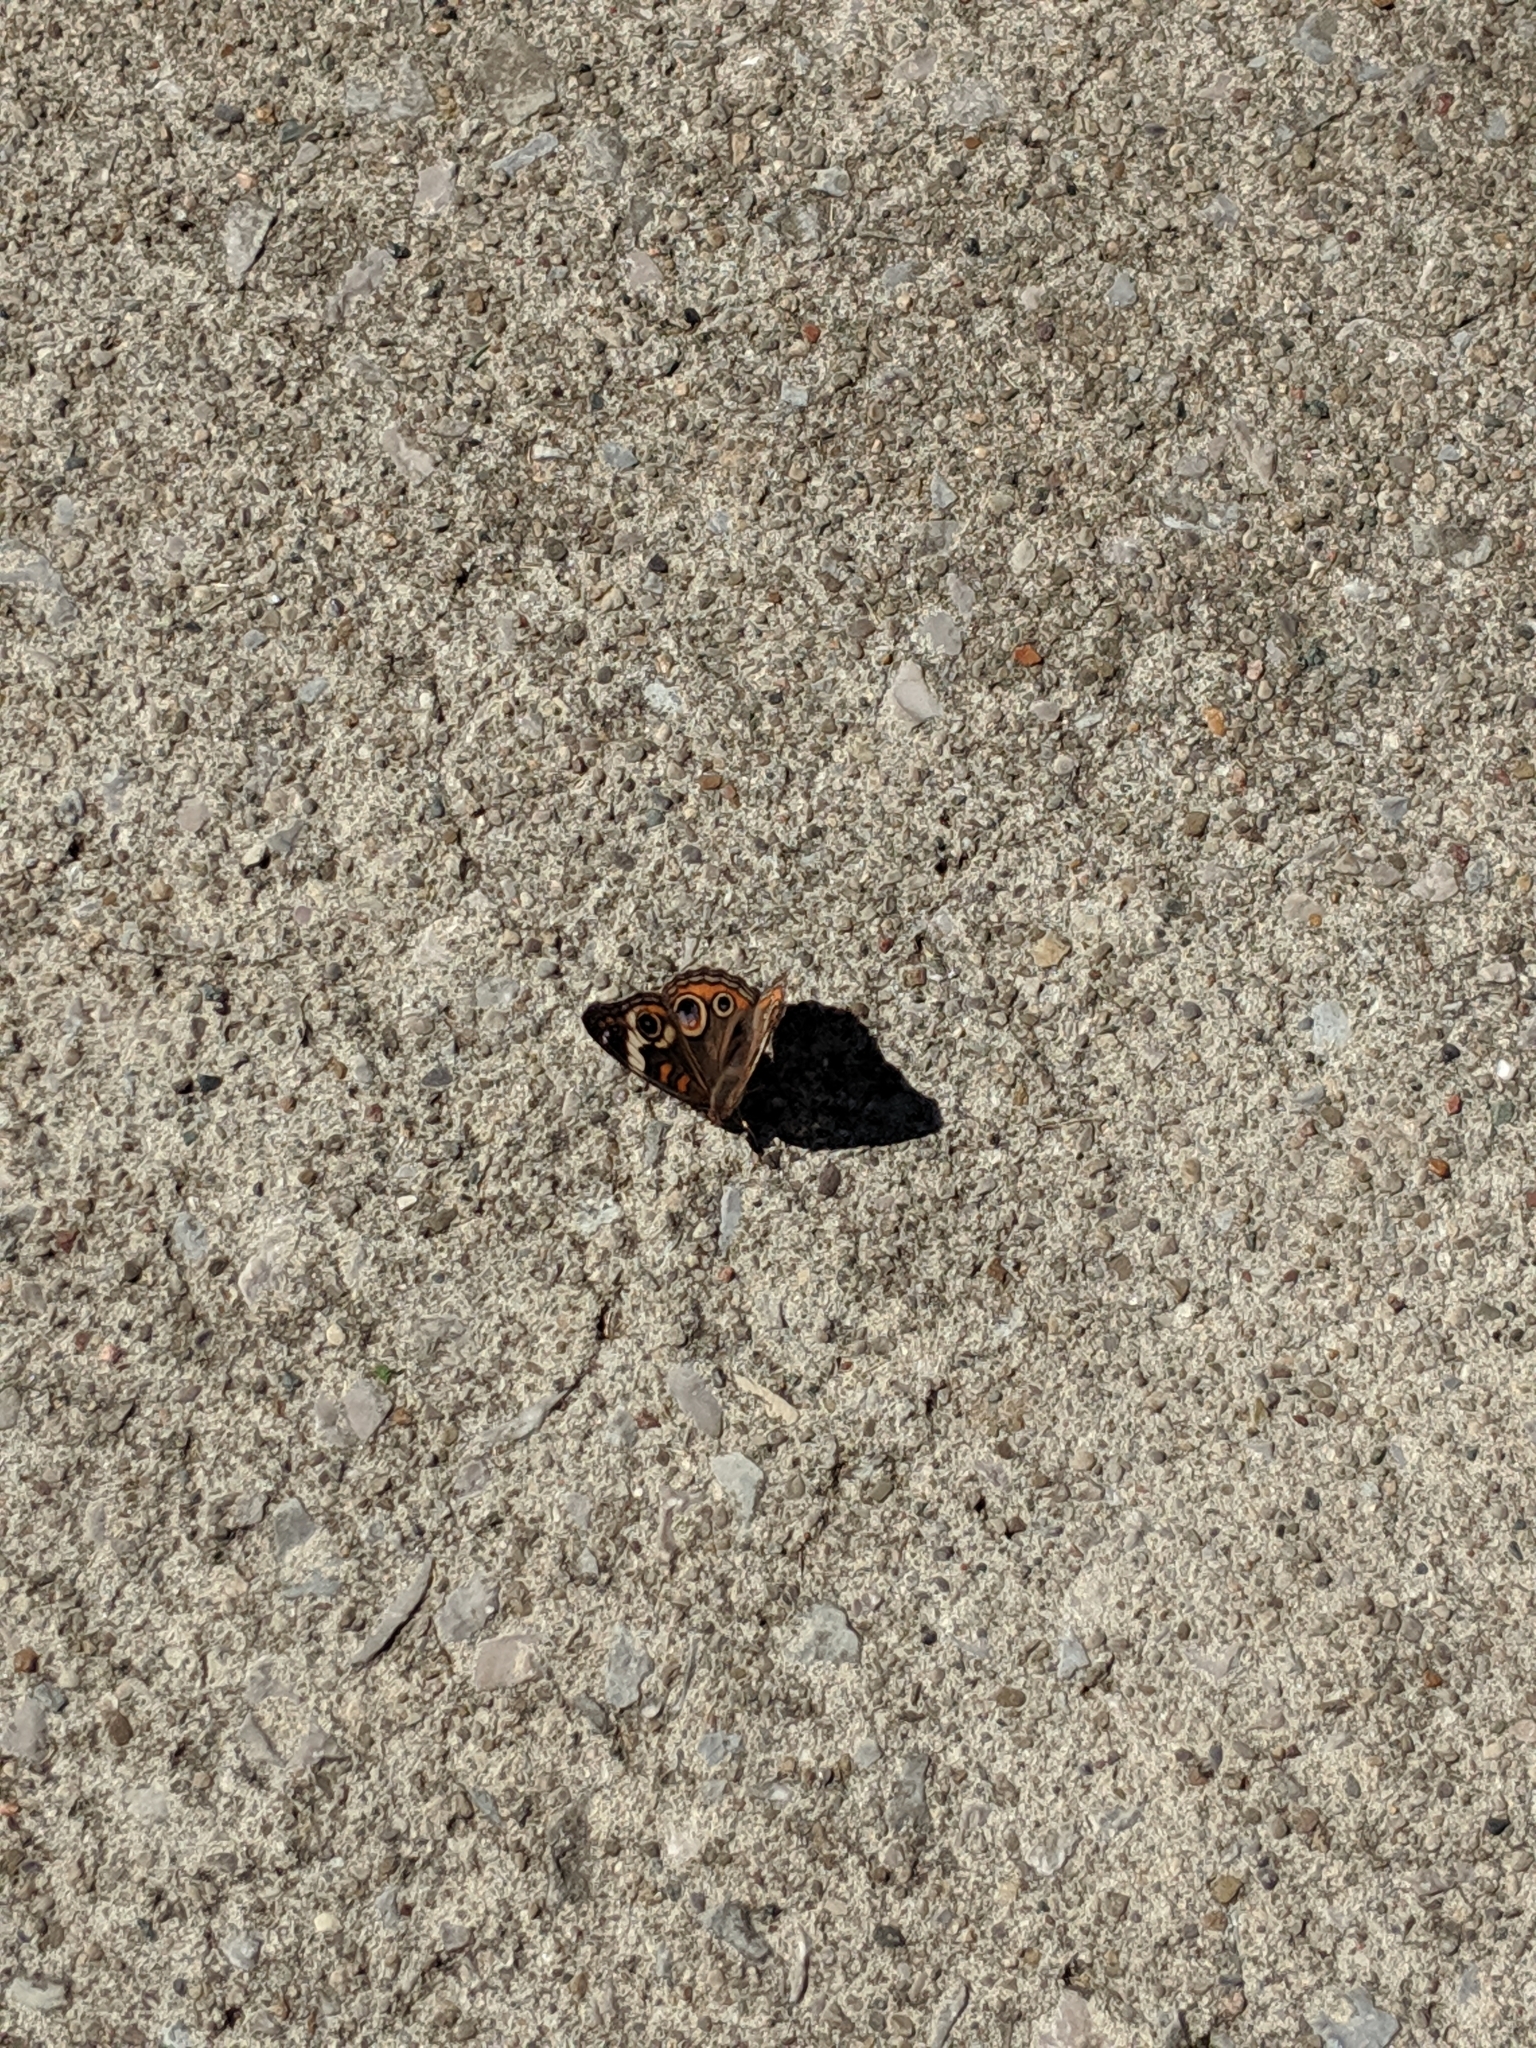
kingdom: Animalia
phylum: Arthropoda
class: Insecta
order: Lepidoptera
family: Nymphalidae
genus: Junonia
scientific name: Junonia coenia
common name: Common buckeye
